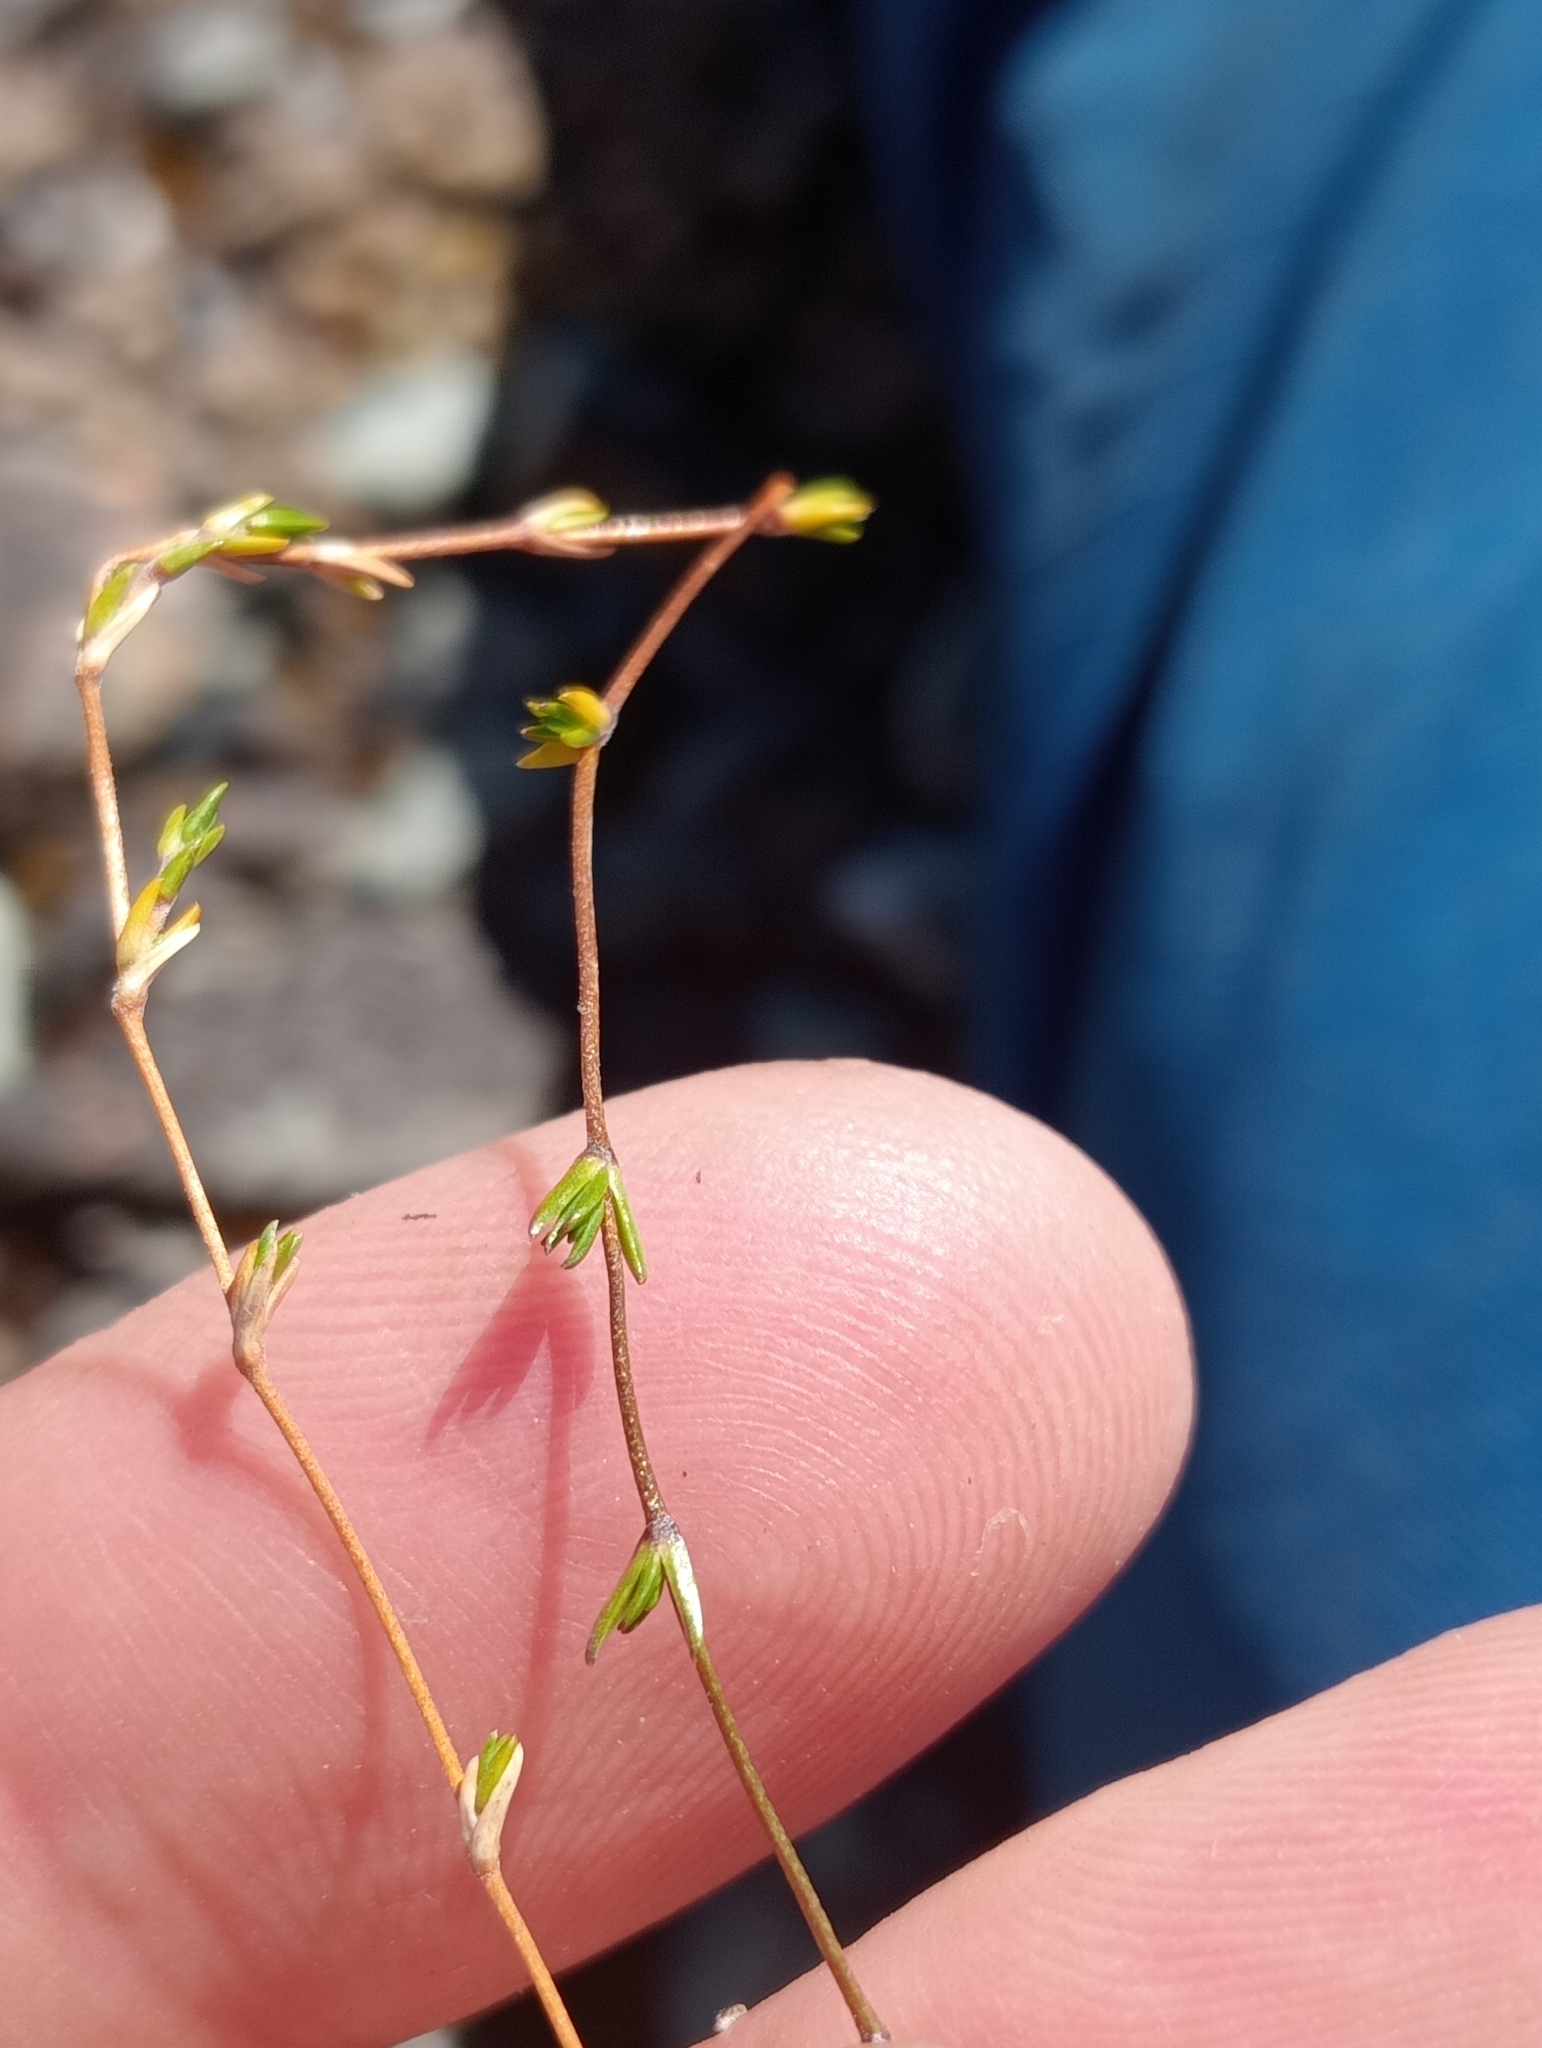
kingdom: Plantae
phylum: Tracheophyta
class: Magnoliopsida
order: Caryophyllales
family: Caryophyllaceae
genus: Stellaria
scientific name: Stellaria gracilenta
